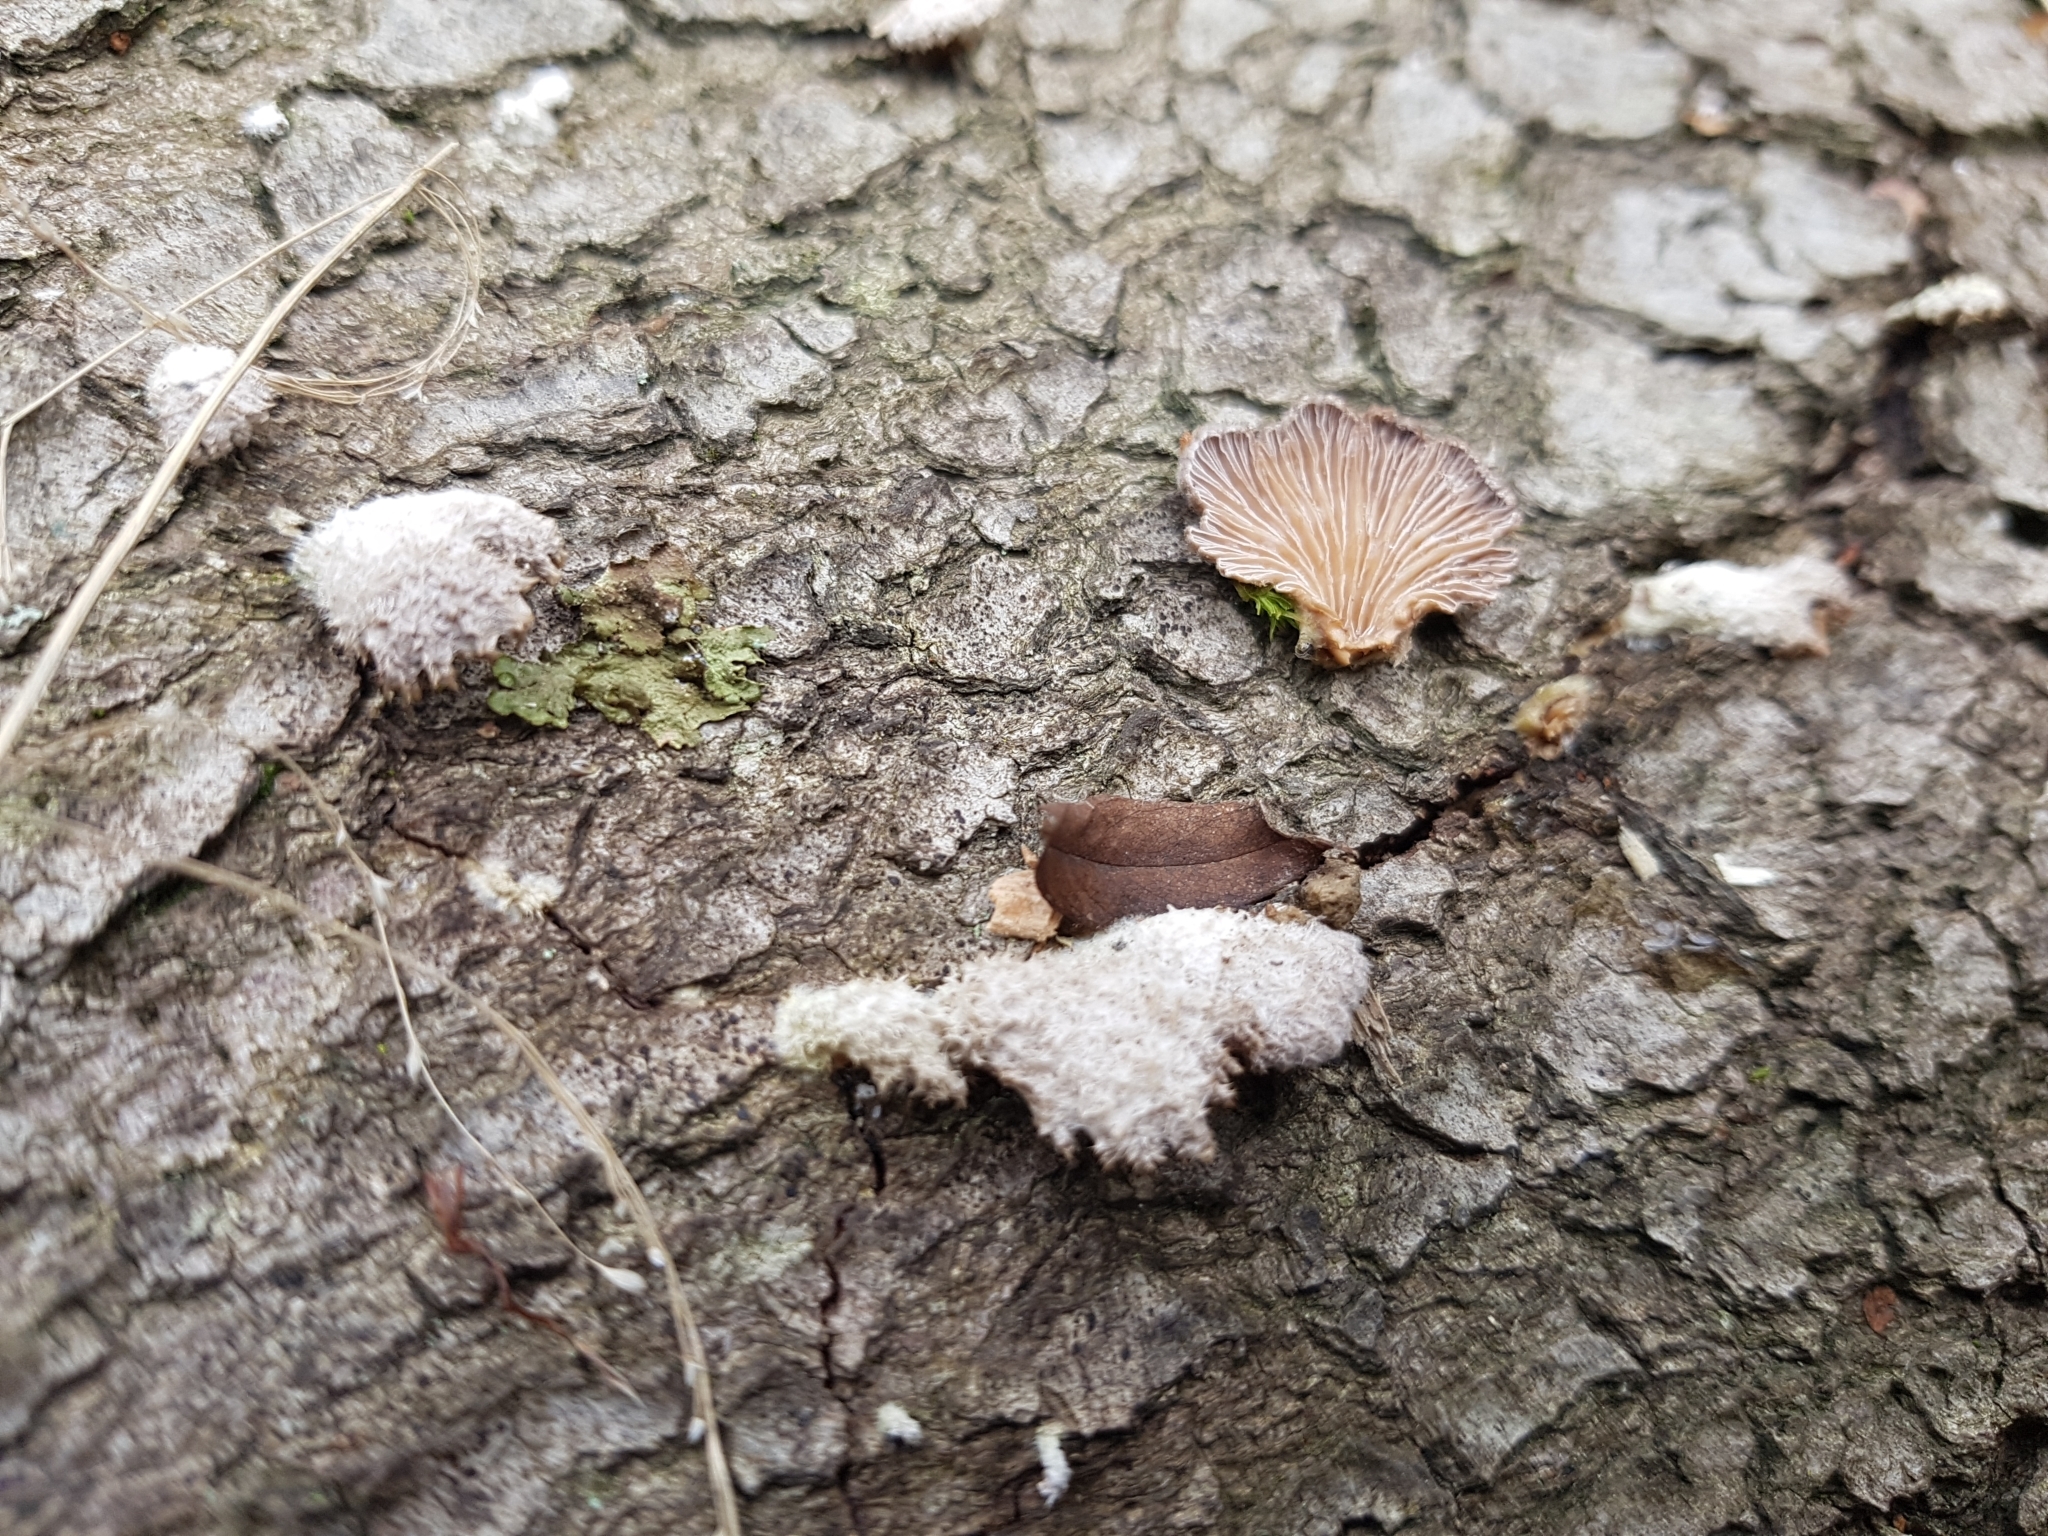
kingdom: Fungi
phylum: Basidiomycota
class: Agaricomycetes
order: Agaricales
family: Schizophyllaceae
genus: Schizophyllum
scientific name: Schizophyllum commune
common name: Common porecrust
